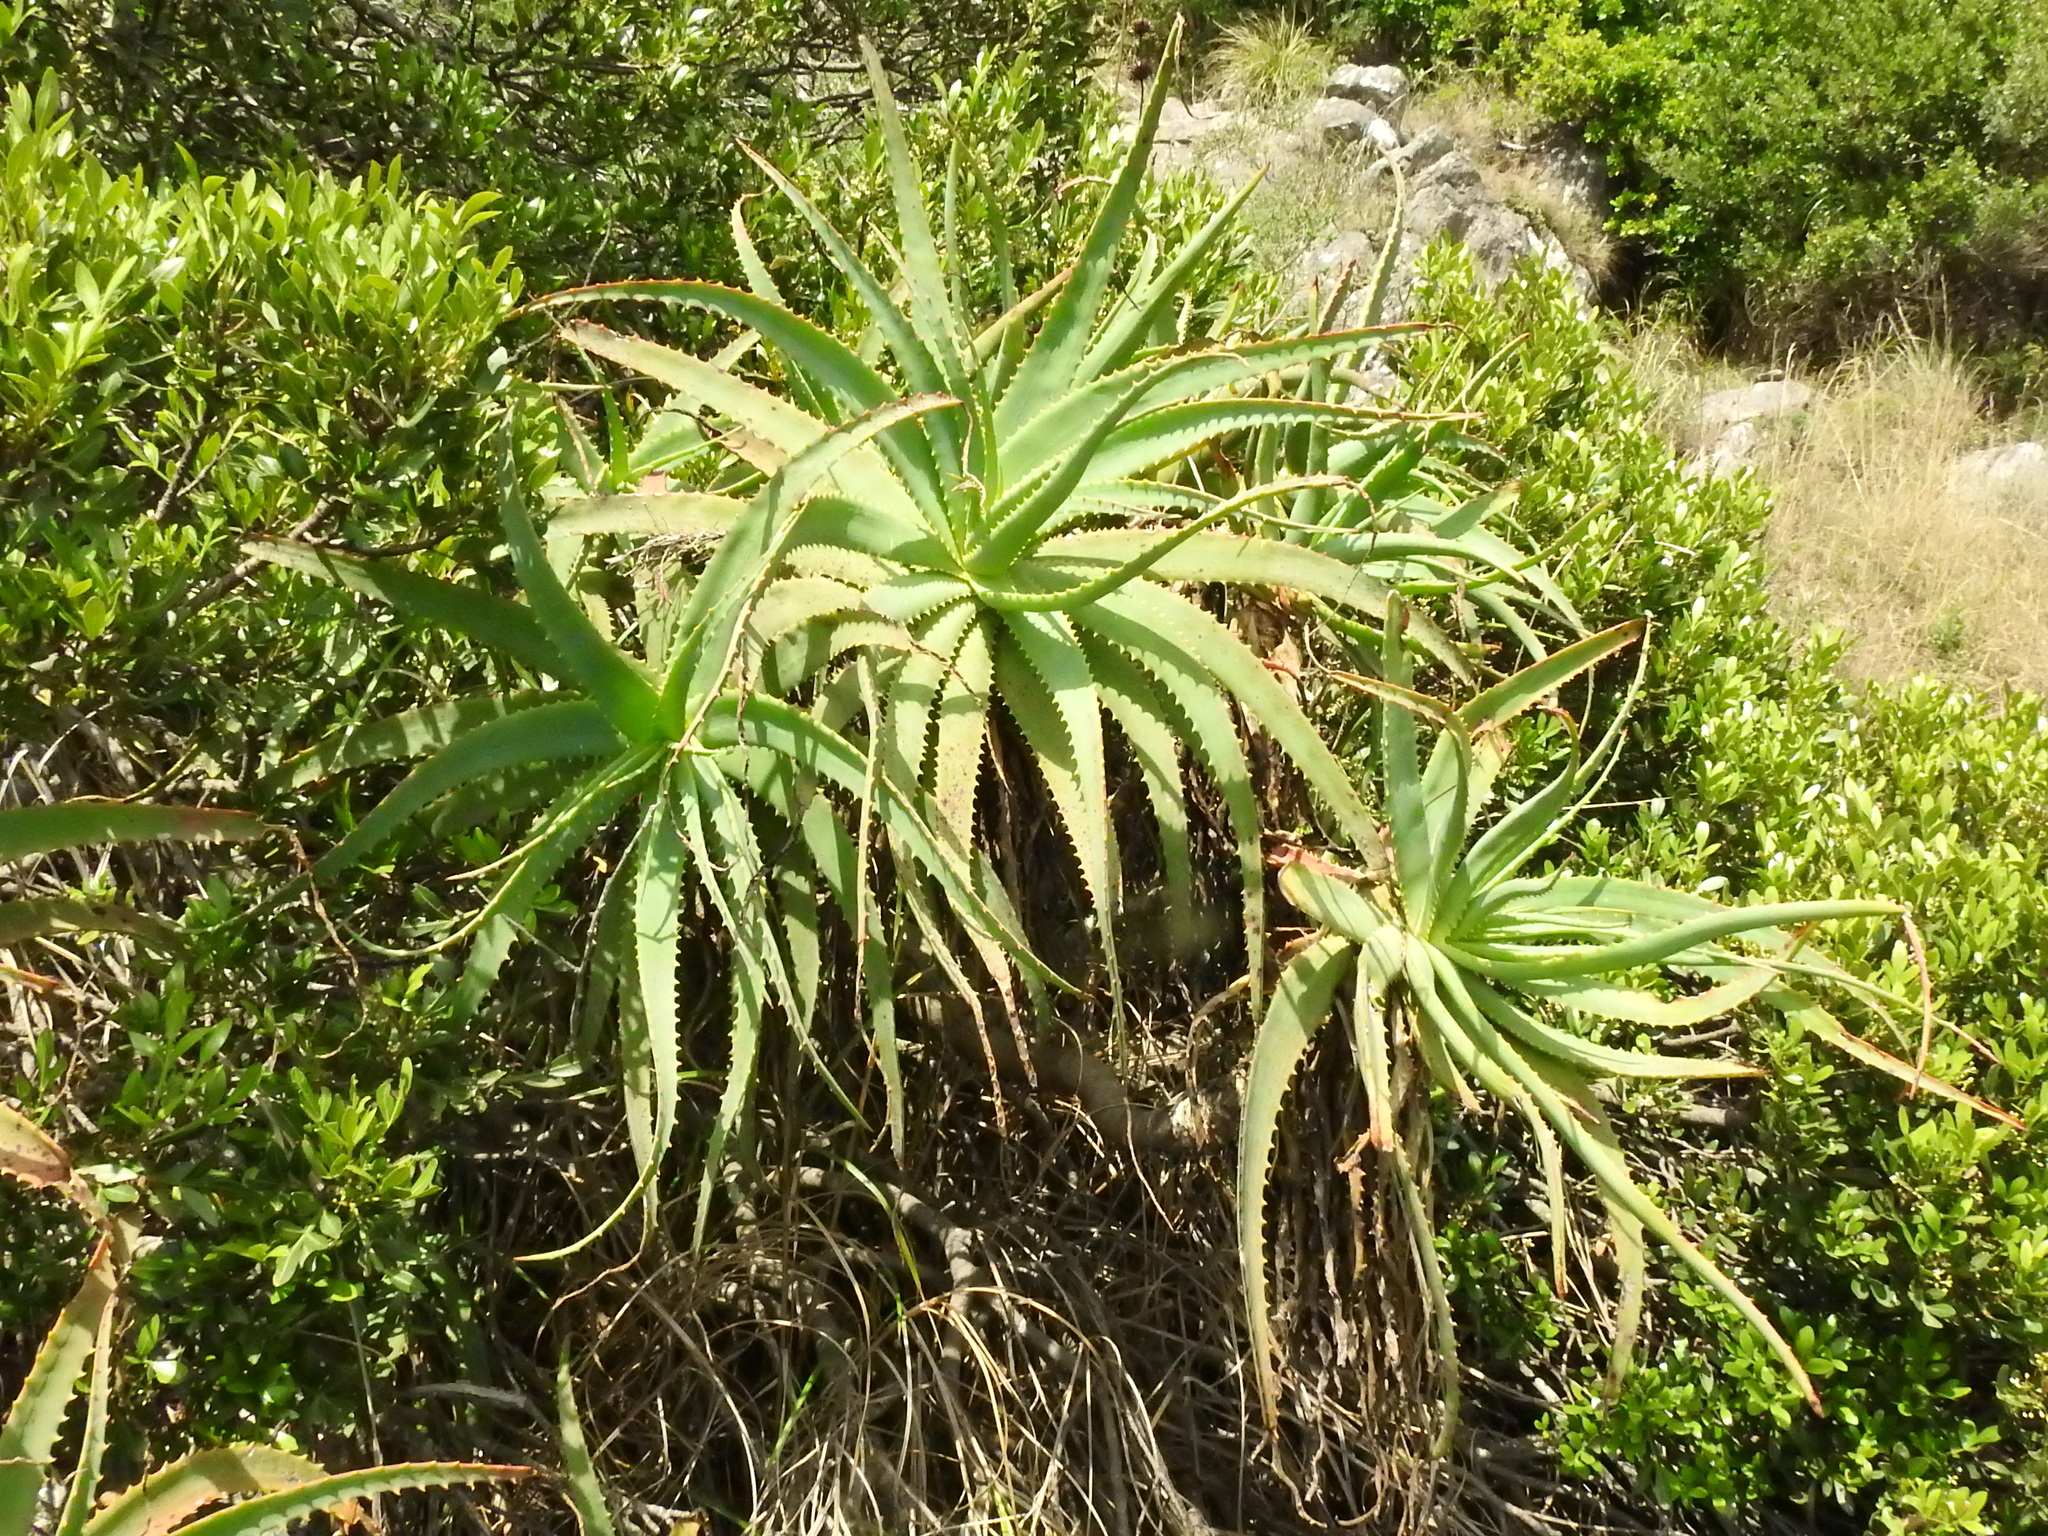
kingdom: Plantae
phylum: Tracheophyta
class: Liliopsida
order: Asparagales
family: Asphodelaceae
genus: Aloe
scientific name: Aloe arborescens
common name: Candelabra aloe
